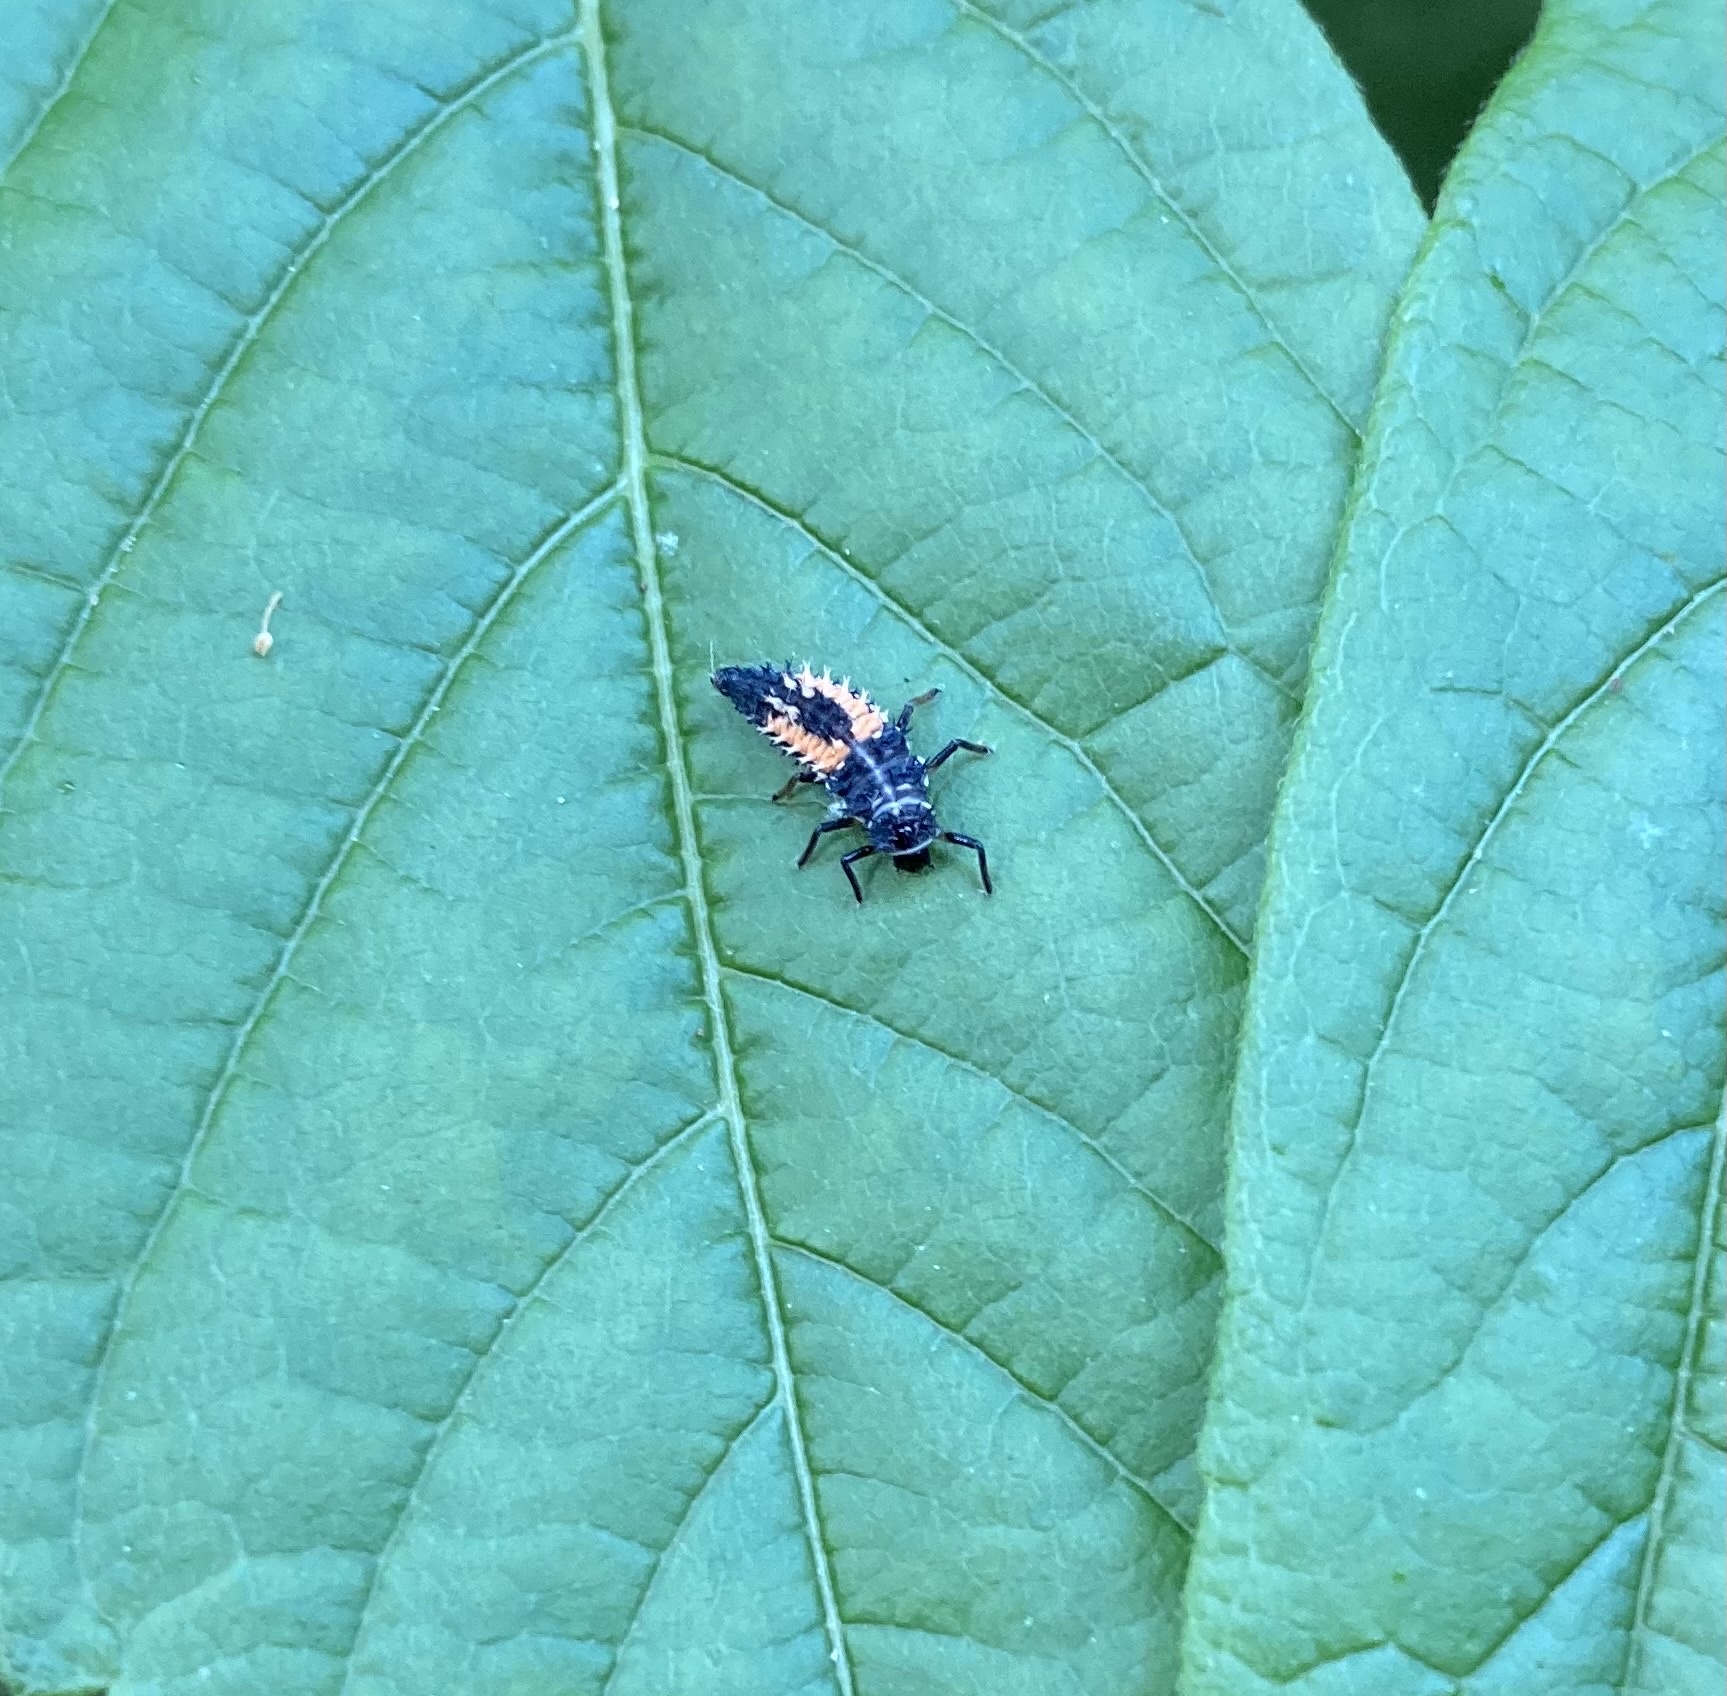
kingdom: Animalia
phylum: Arthropoda
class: Insecta
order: Coleoptera
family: Coccinellidae
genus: Harmonia
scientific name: Harmonia axyridis
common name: Harlequin ladybird
